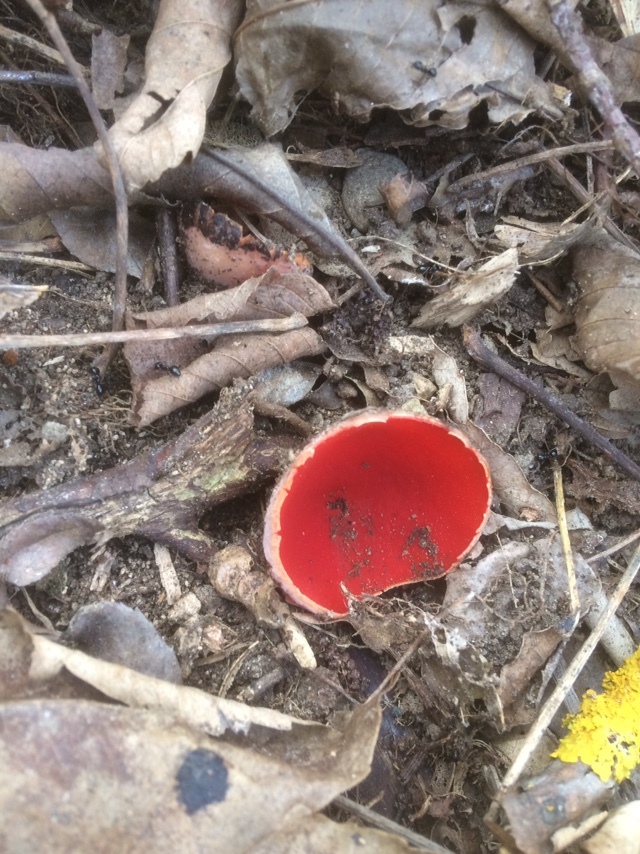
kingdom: Fungi
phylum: Ascomycota
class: Pezizomycetes
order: Pezizales
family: Sarcoscyphaceae
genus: Sarcoscypha
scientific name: Sarcoscypha
